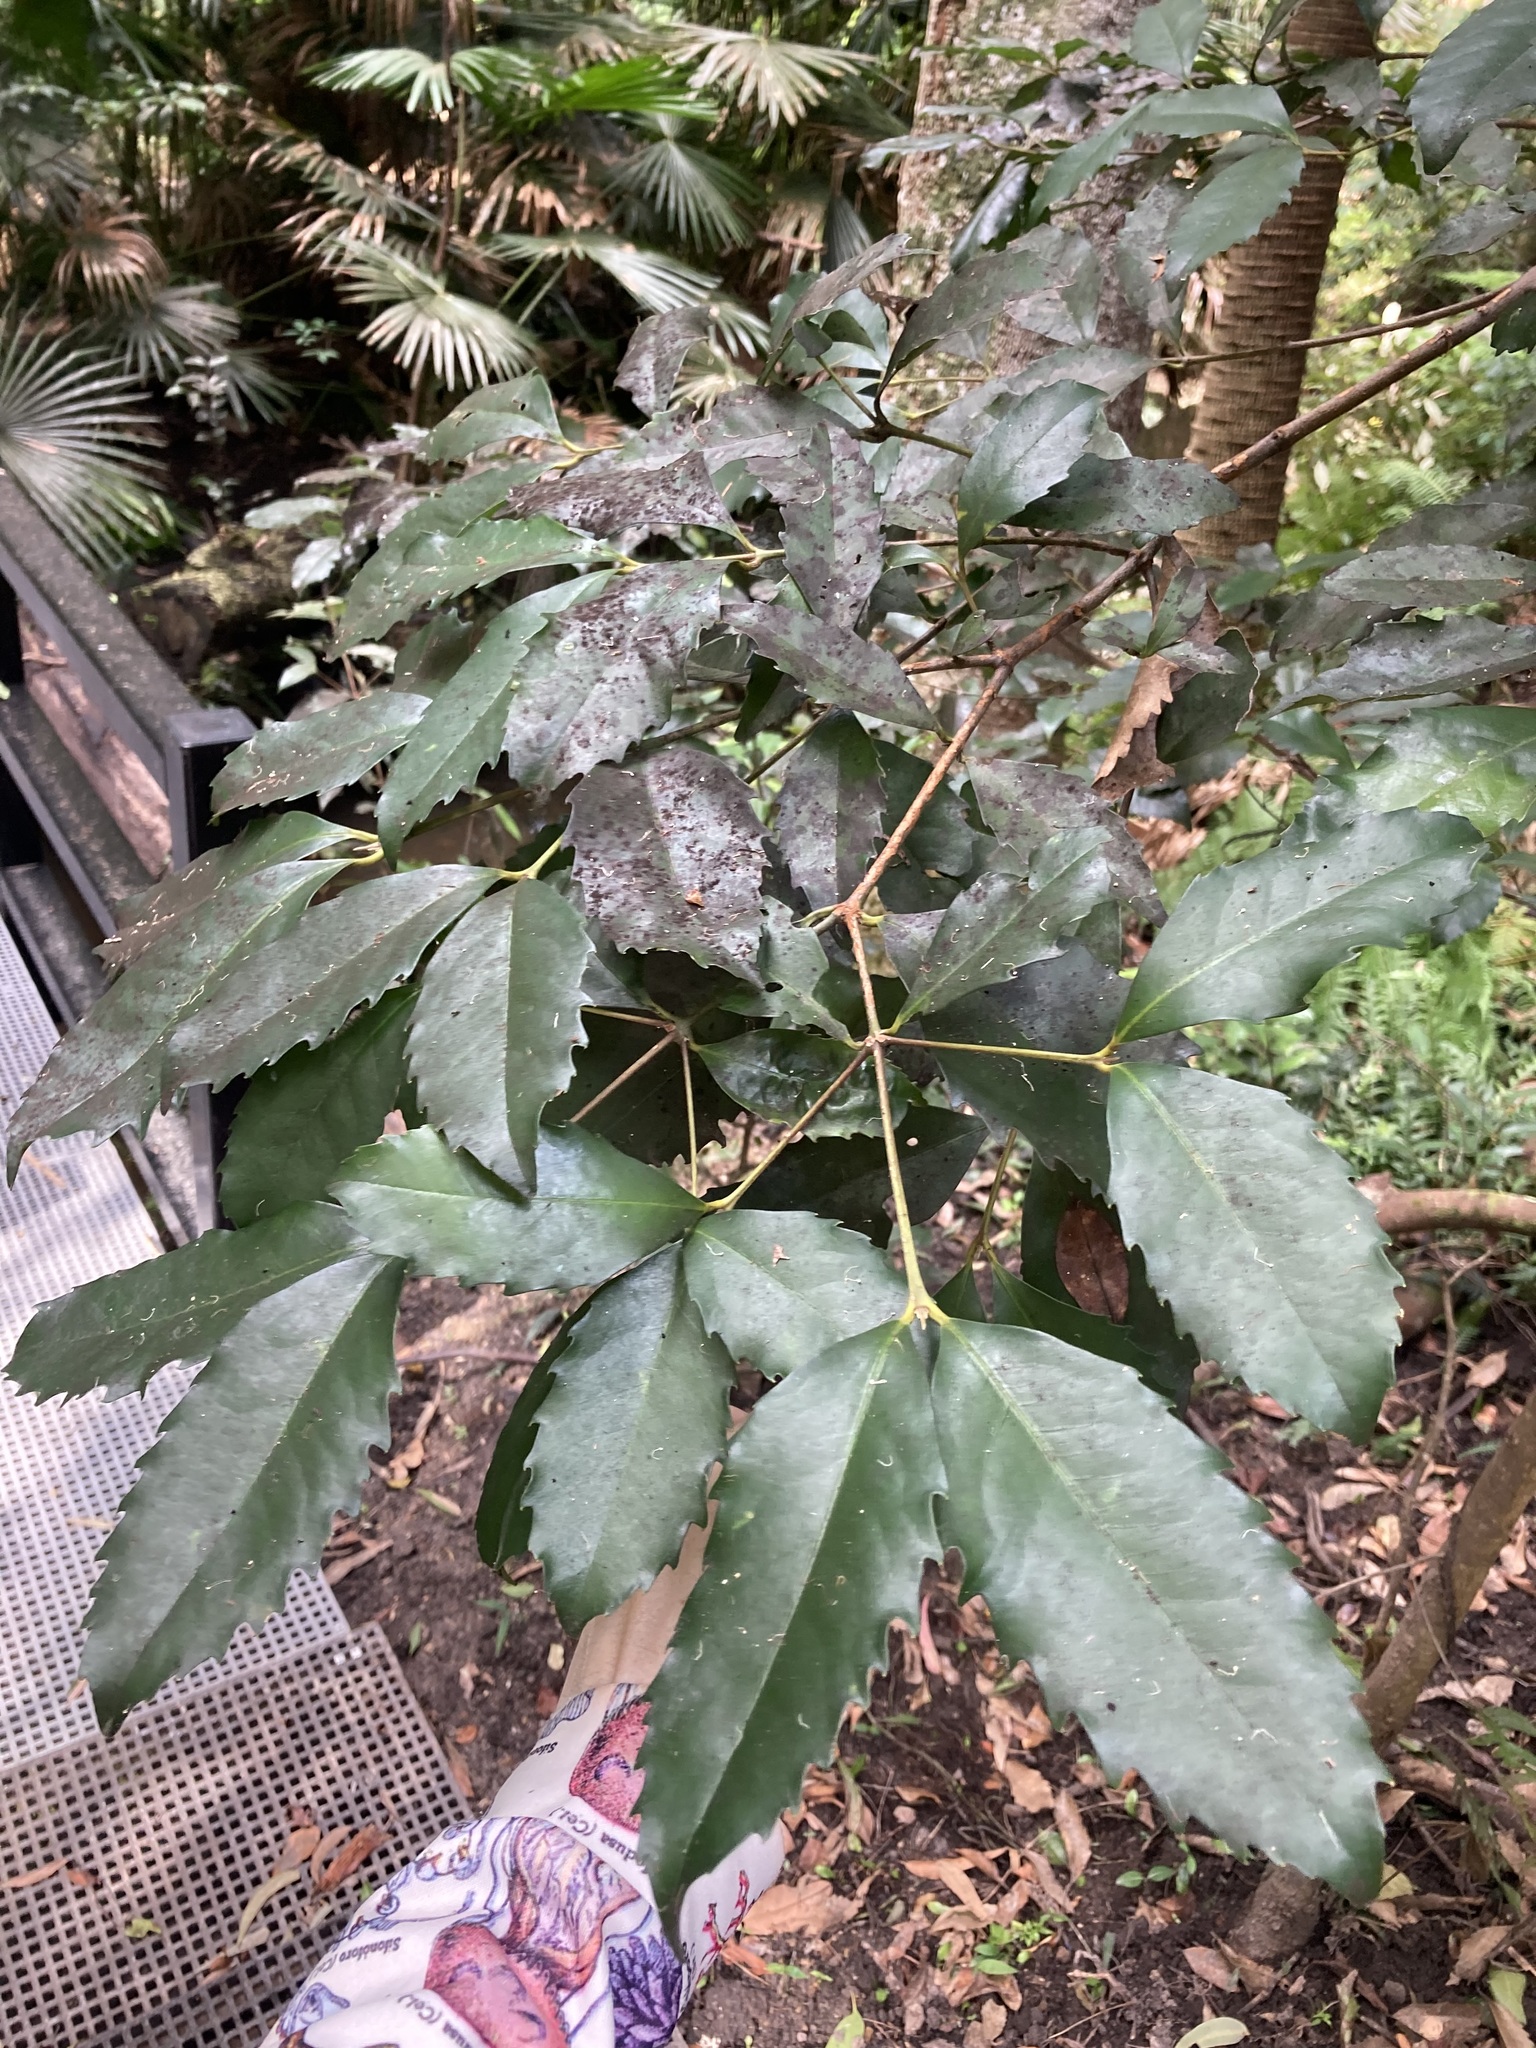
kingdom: Plantae
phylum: Tracheophyta
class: Magnoliopsida
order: Laurales
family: Atherospermataceae
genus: Doryphora
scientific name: Doryphora sassafras
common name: Golden-sassafras
